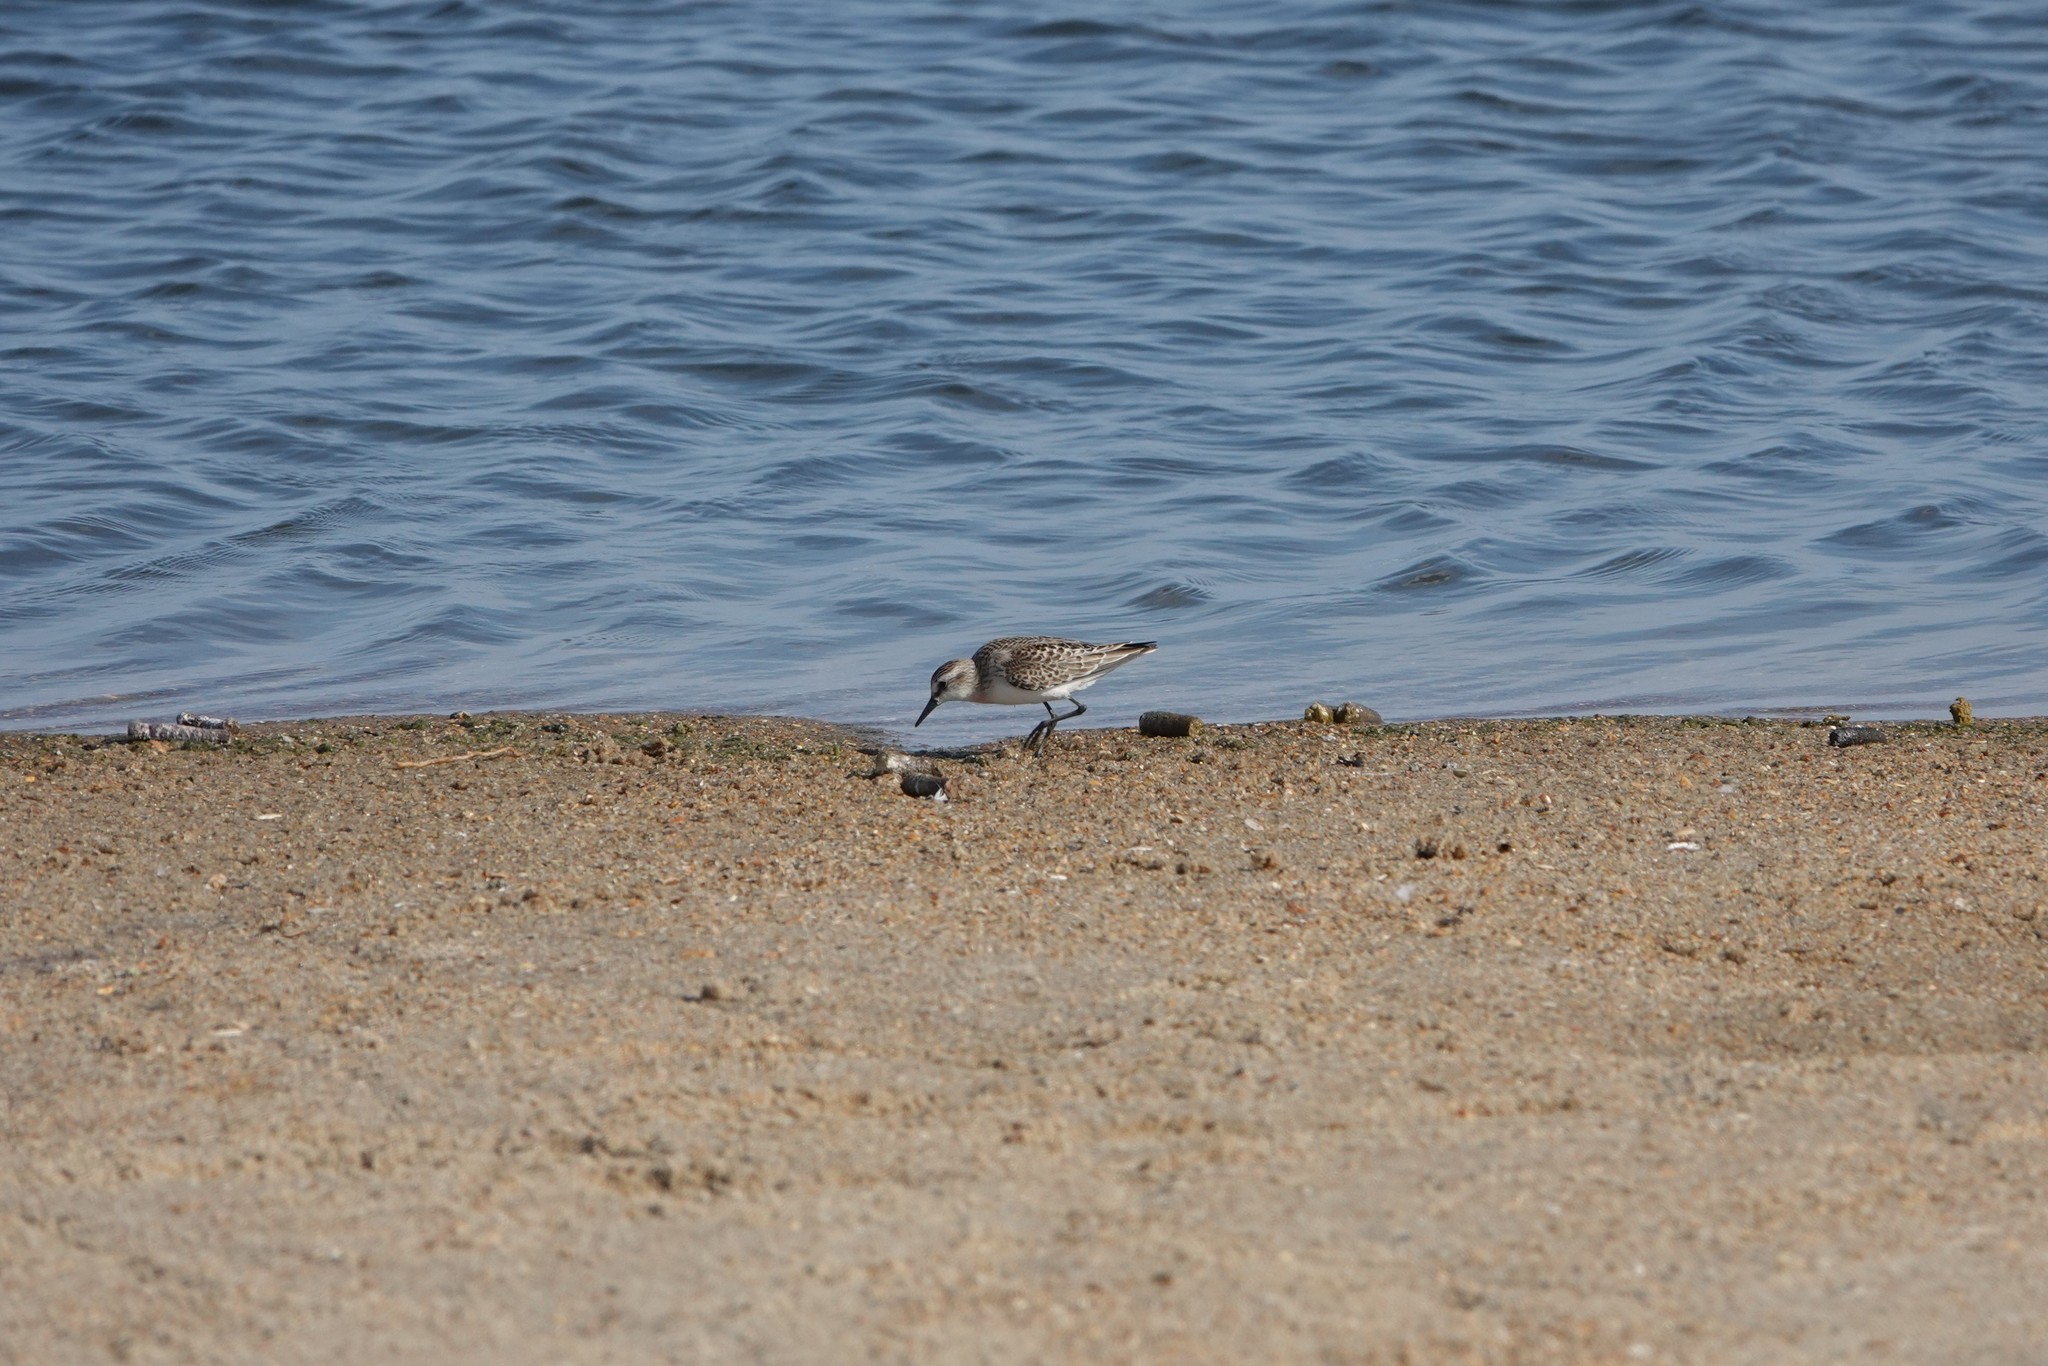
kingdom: Animalia
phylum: Chordata
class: Aves
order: Charadriiformes
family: Scolopacidae
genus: Calidris
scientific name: Calidris pusilla
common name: Semipalmated sandpiper
